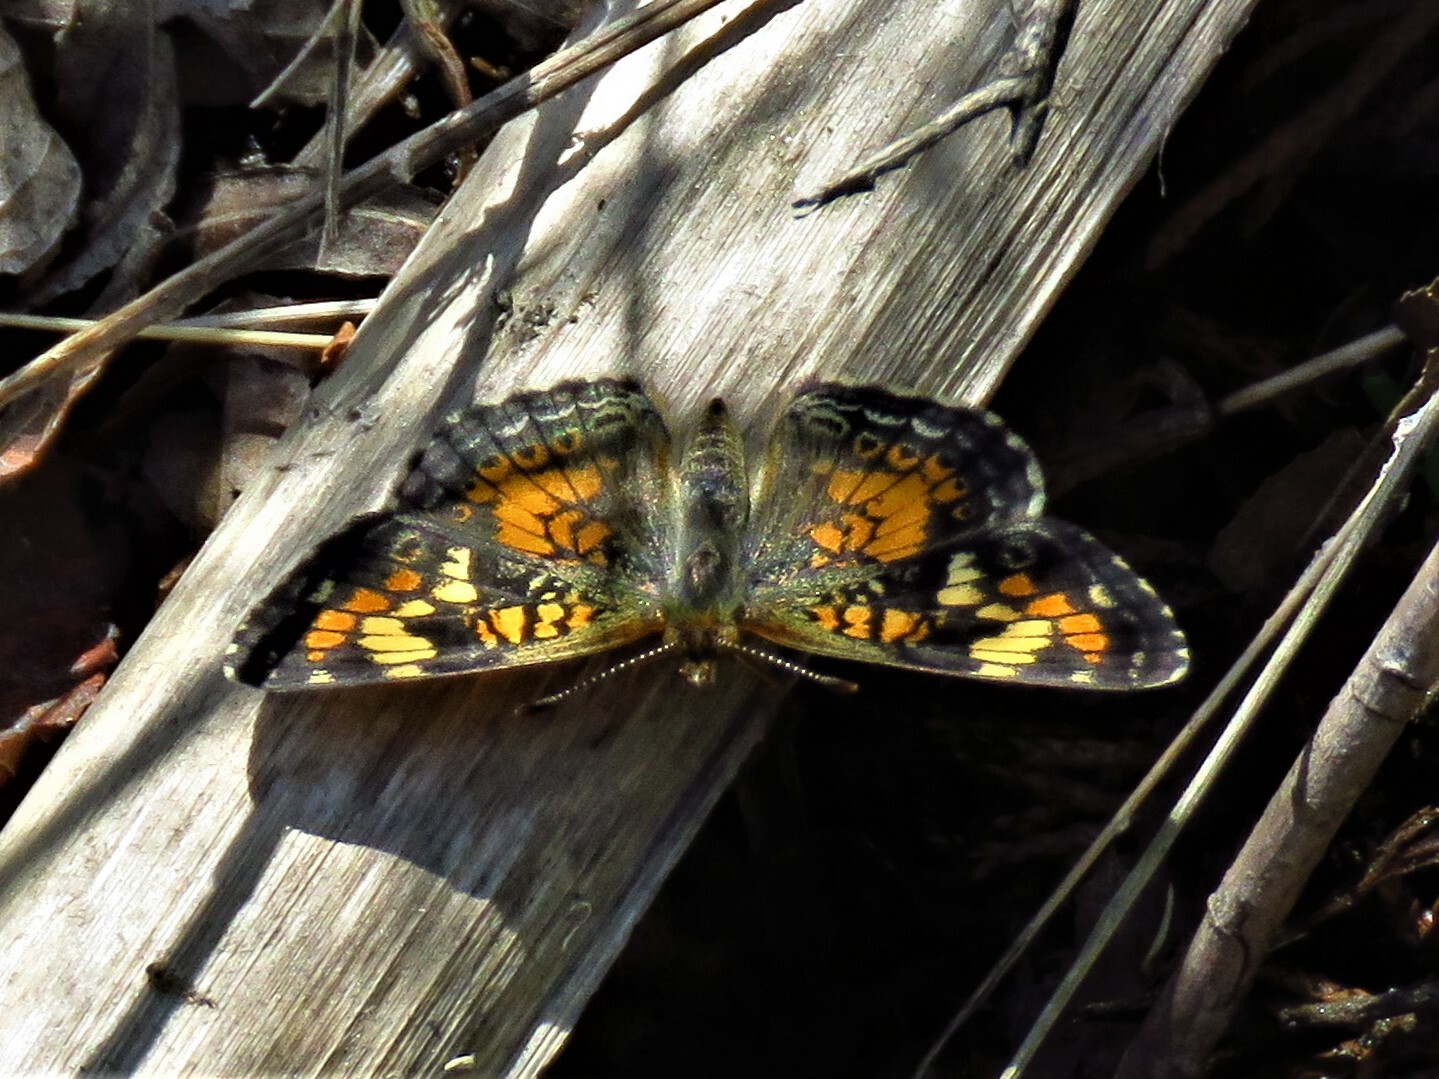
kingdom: Animalia
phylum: Arthropoda
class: Insecta
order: Lepidoptera
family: Nymphalidae
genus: Phyciodes
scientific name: Phyciodes phaon
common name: Phaon crescent
